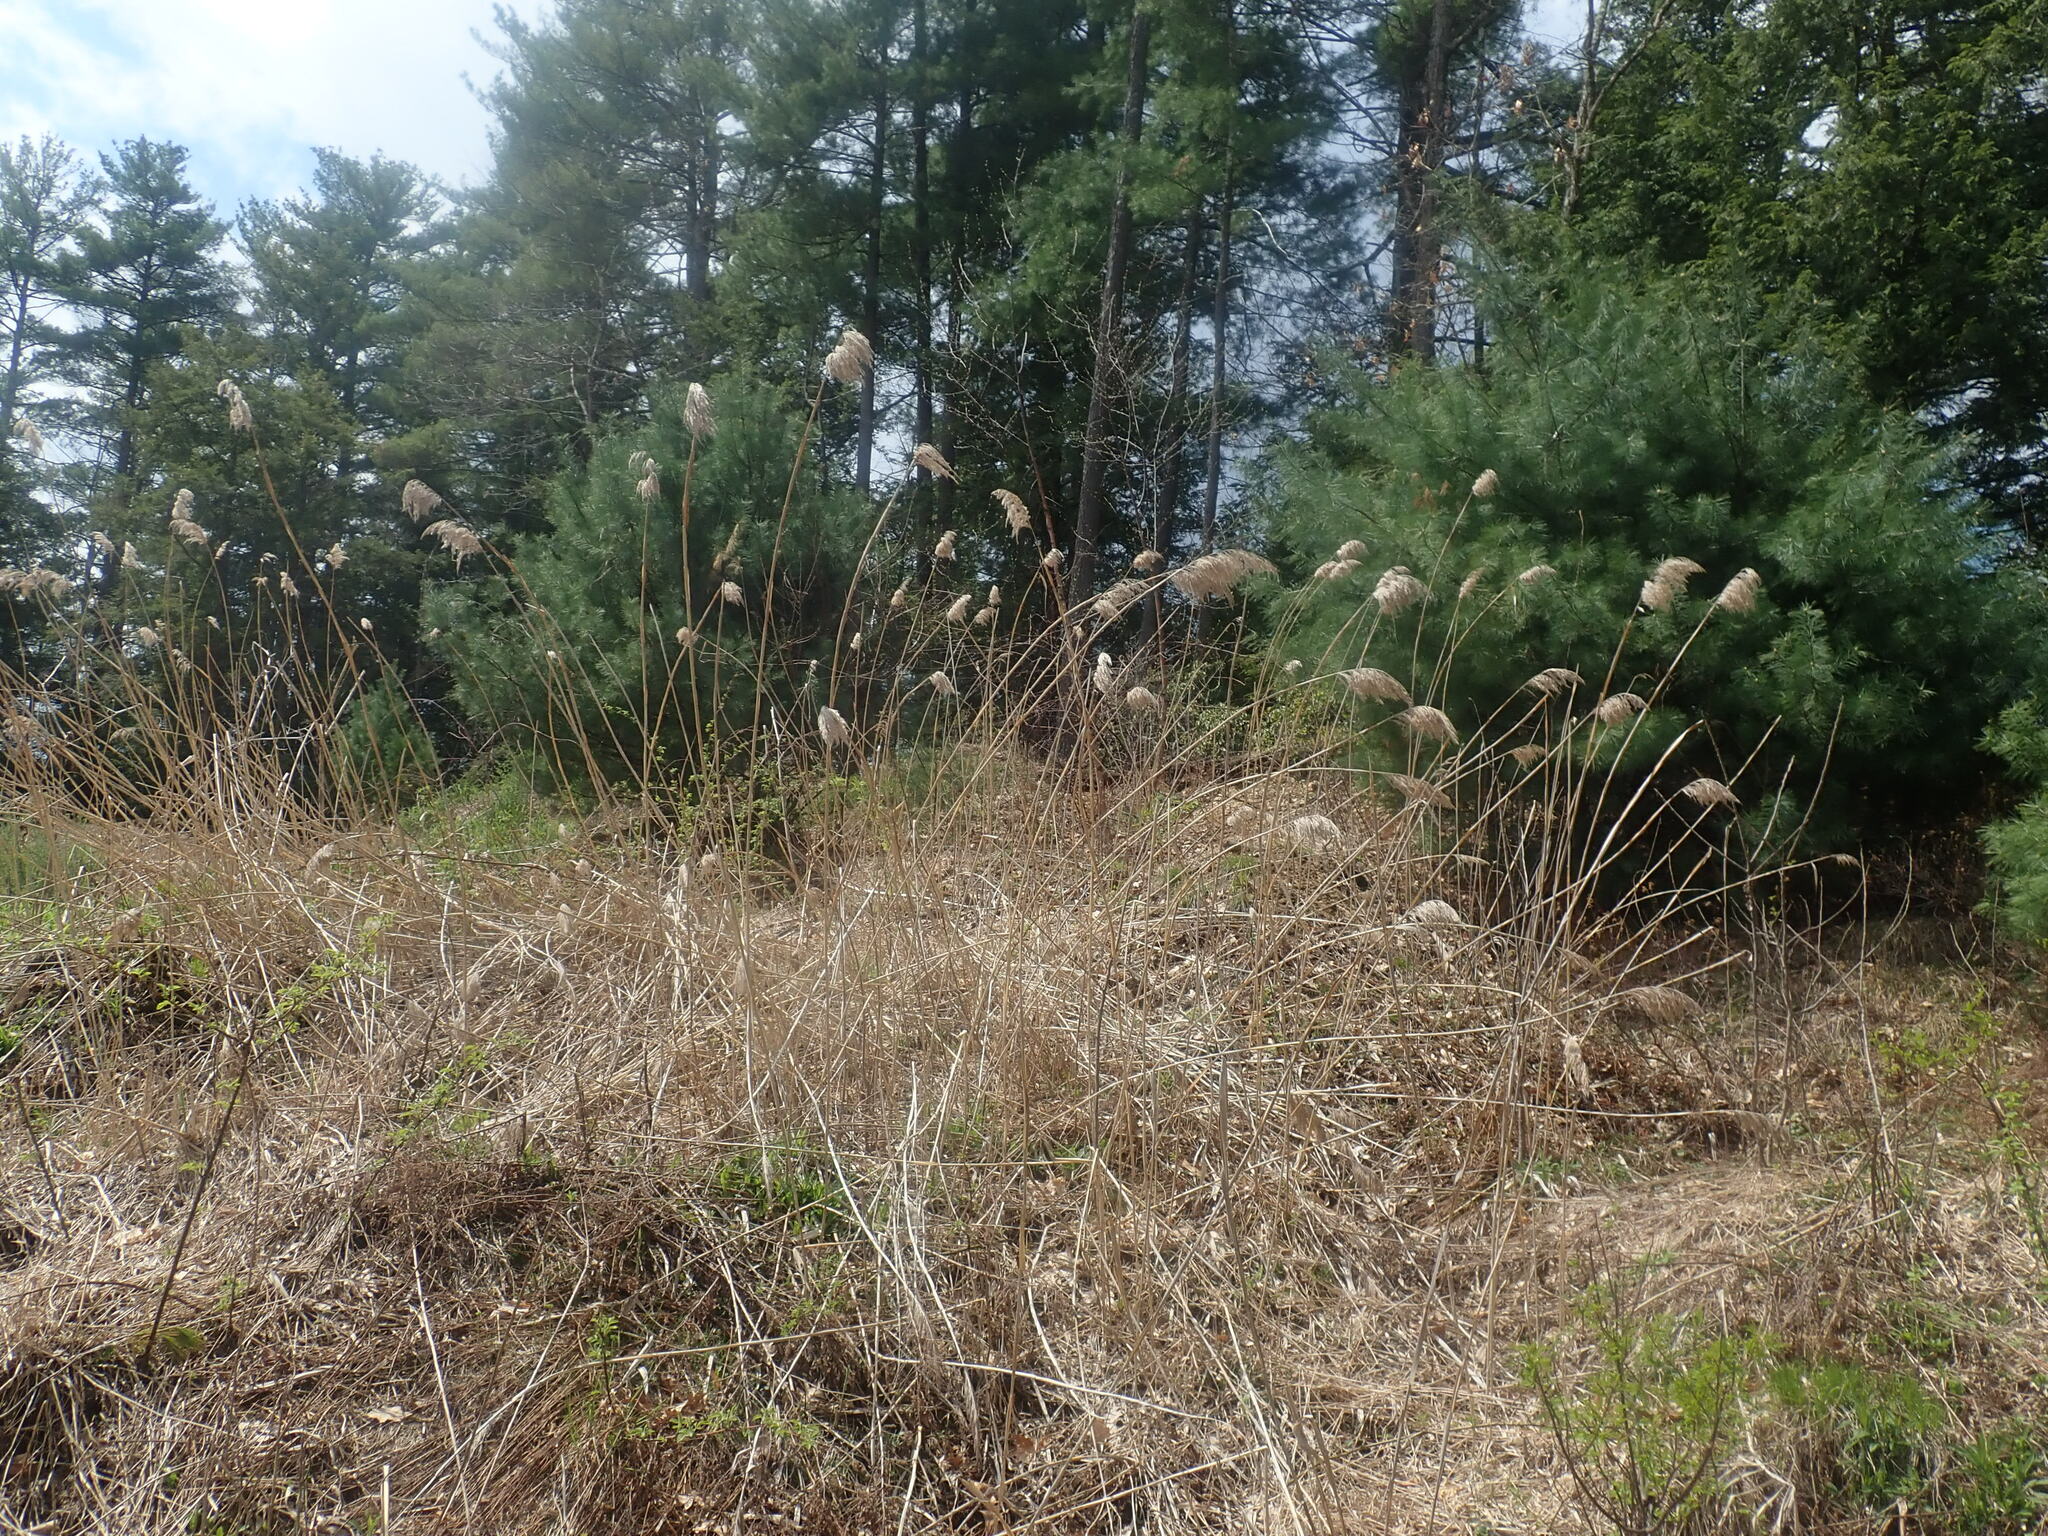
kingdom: Plantae
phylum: Tracheophyta
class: Liliopsida
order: Poales
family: Poaceae
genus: Phragmites
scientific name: Phragmites australis
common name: Common reed
